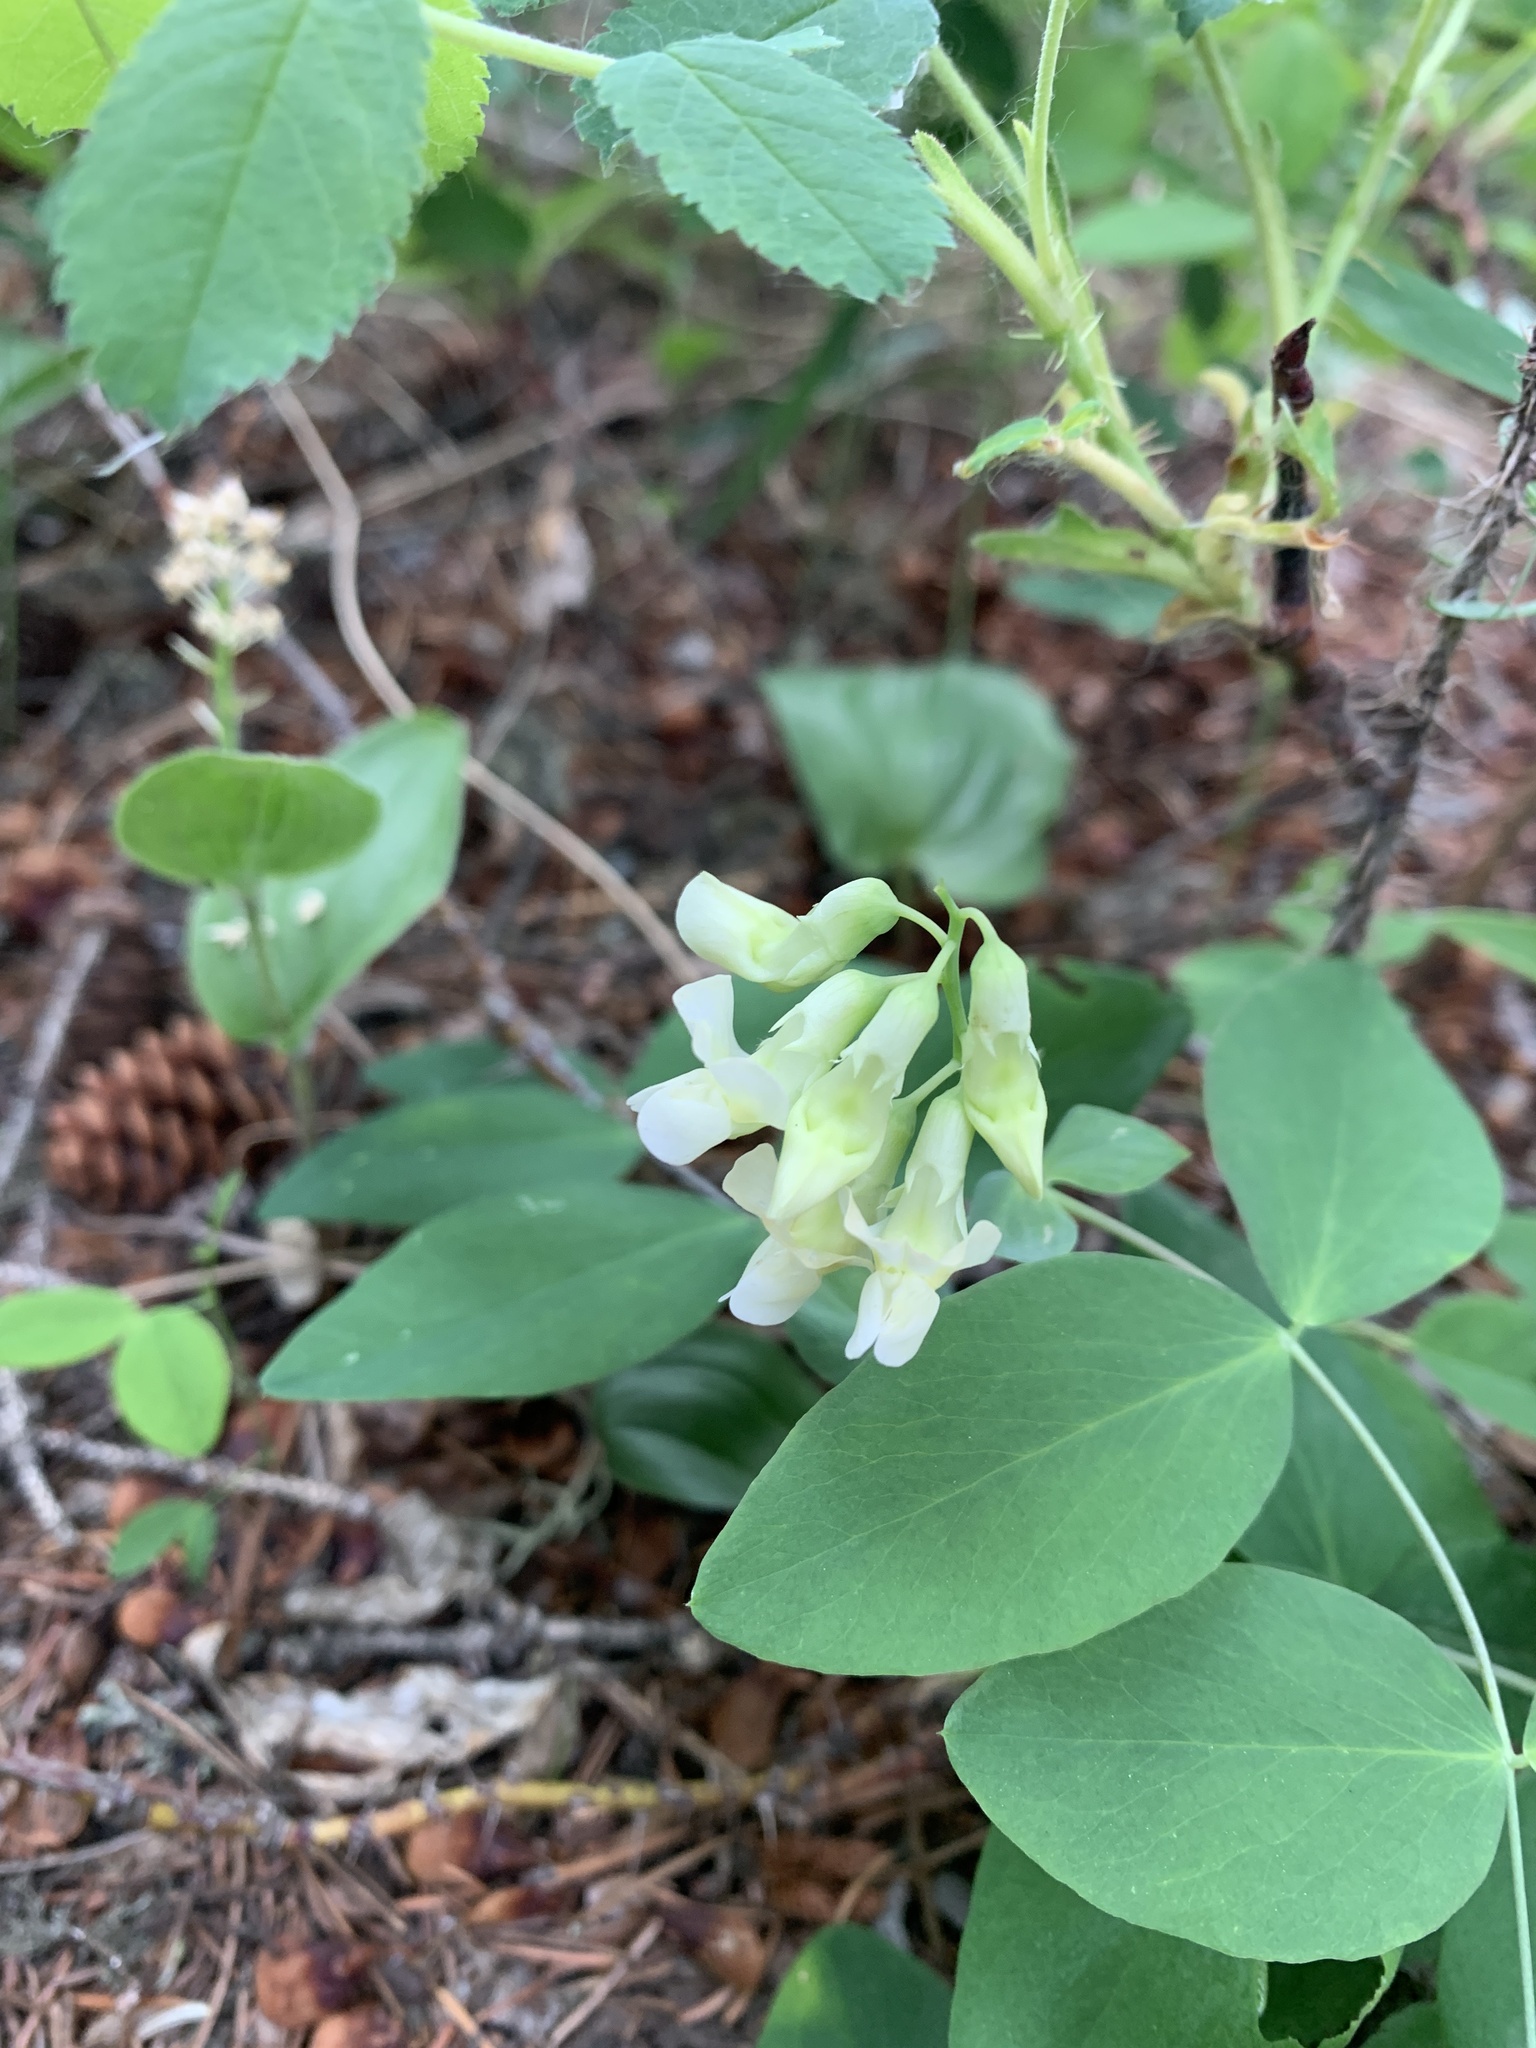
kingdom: Plantae
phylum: Tracheophyta
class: Magnoliopsida
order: Fabales
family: Fabaceae
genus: Lathyrus
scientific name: Lathyrus ochroleucus
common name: Pale vetchling
